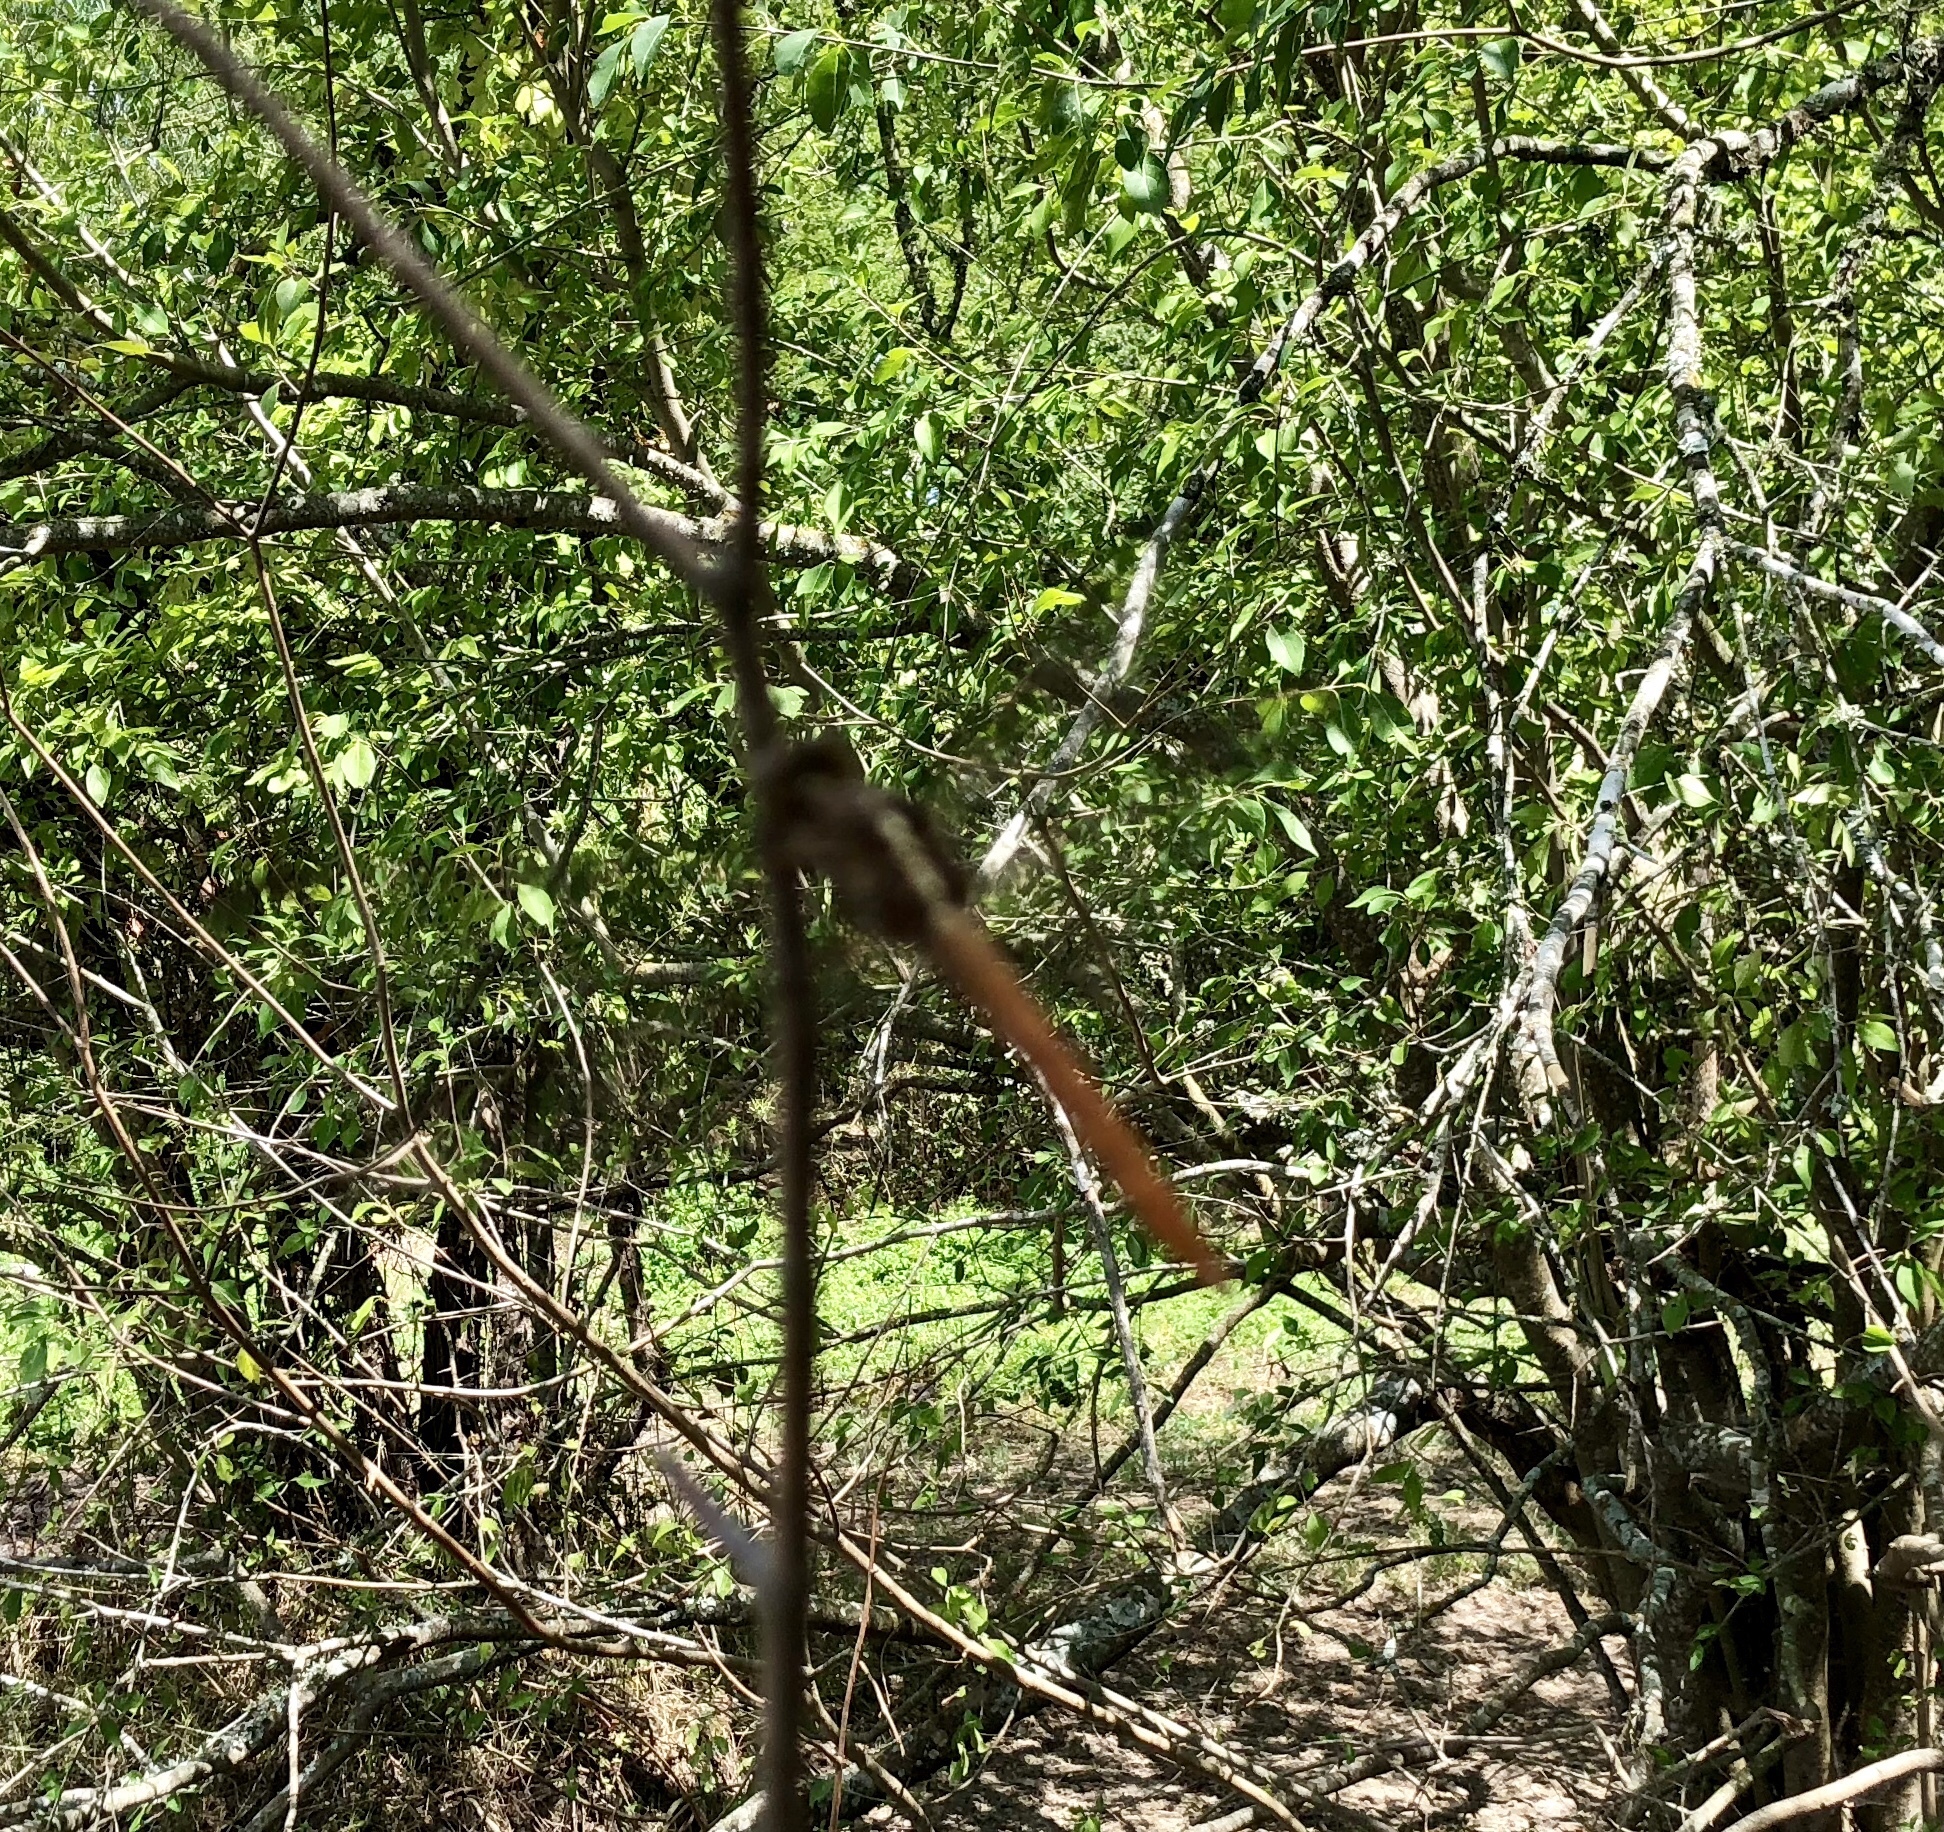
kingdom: Animalia
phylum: Arthropoda
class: Insecta
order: Odonata
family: Libellulidae
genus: Orthemis
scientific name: Orthemis ferruginea
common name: Roseate skimmer
